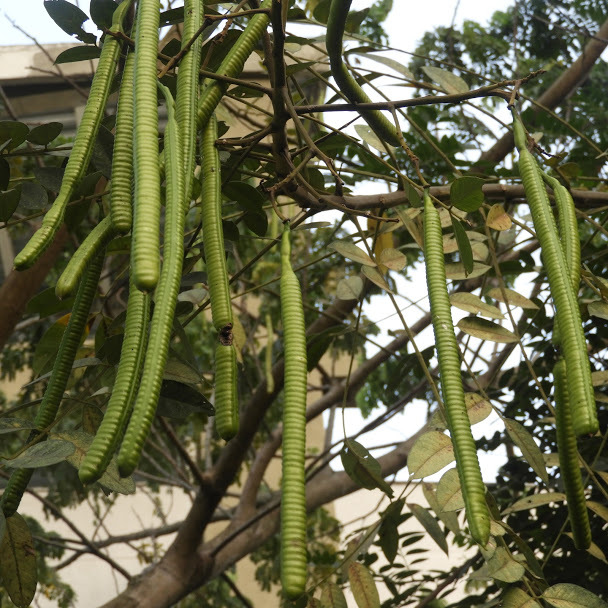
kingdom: Plantae
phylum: Tracheophyta
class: Magnoliopsida
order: Fabales
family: Fabaceae
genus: Senna
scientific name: Senna spectabilis
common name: Casia amarilla
